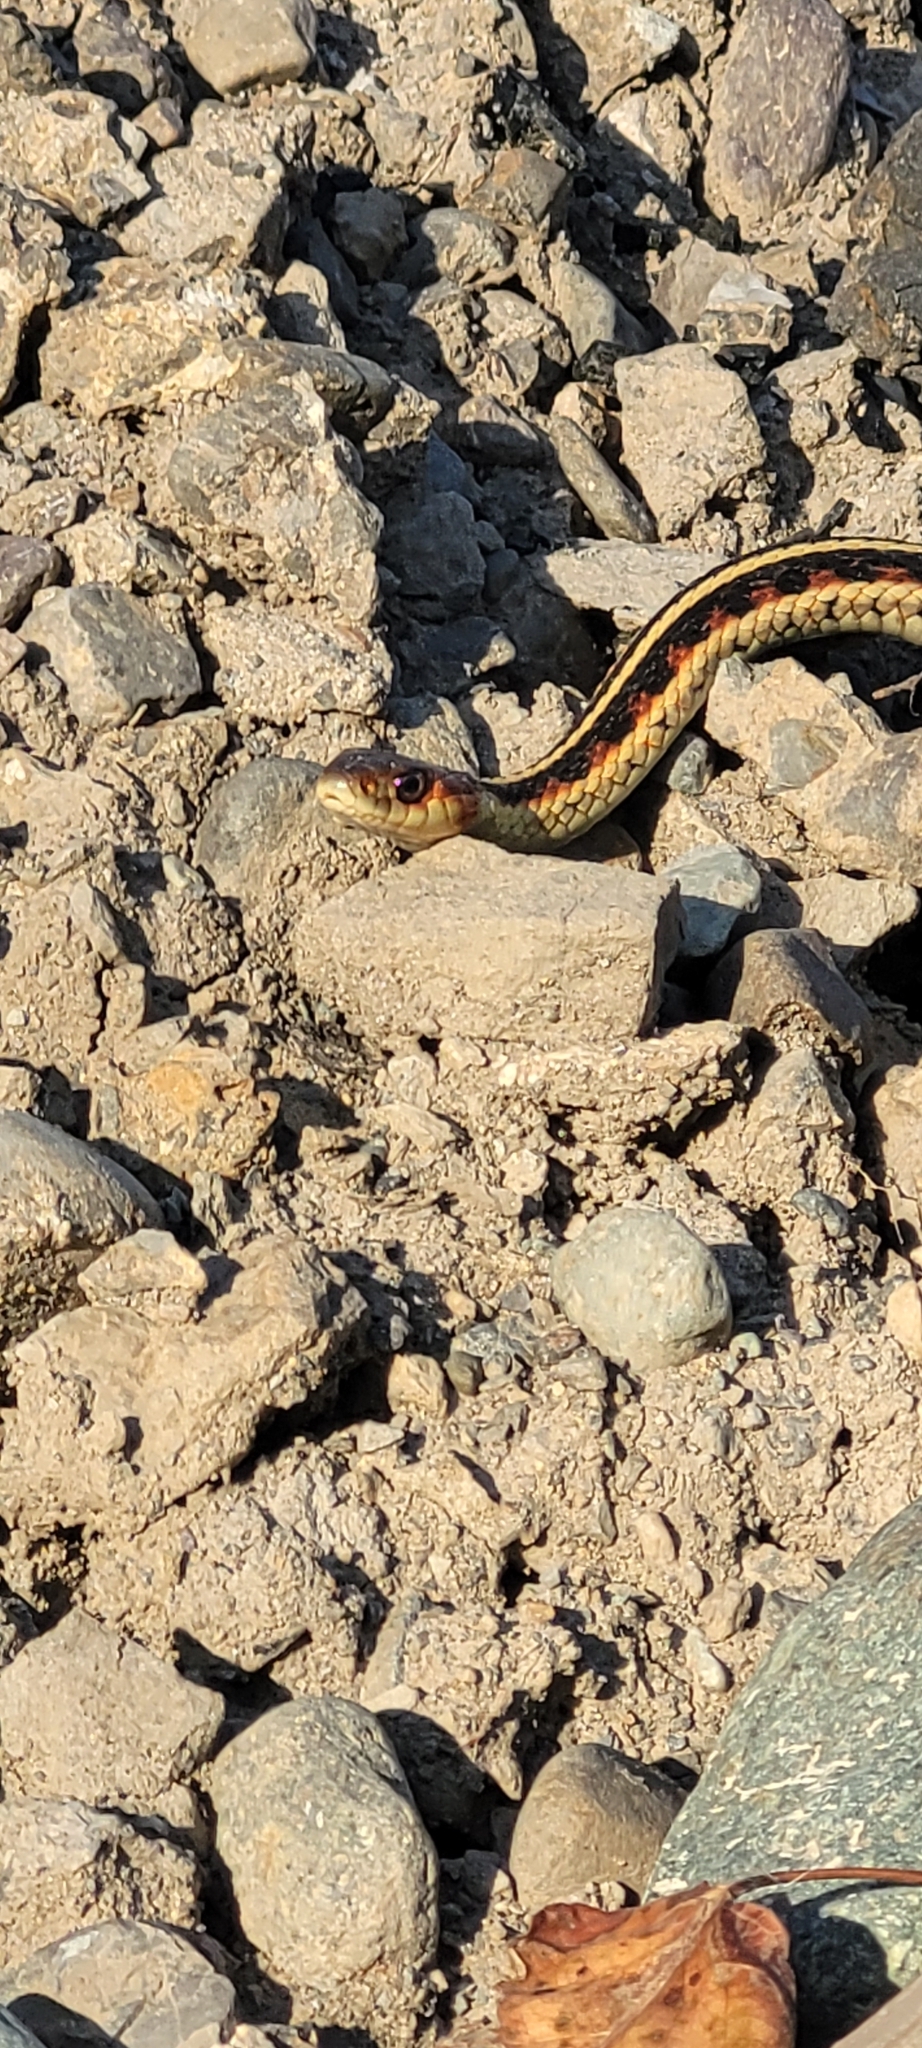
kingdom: Animalia
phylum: Chordata
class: Squamata
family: Colubridae
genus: Thamnophis
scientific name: Thamnophis sirtalis
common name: Common garter snake
